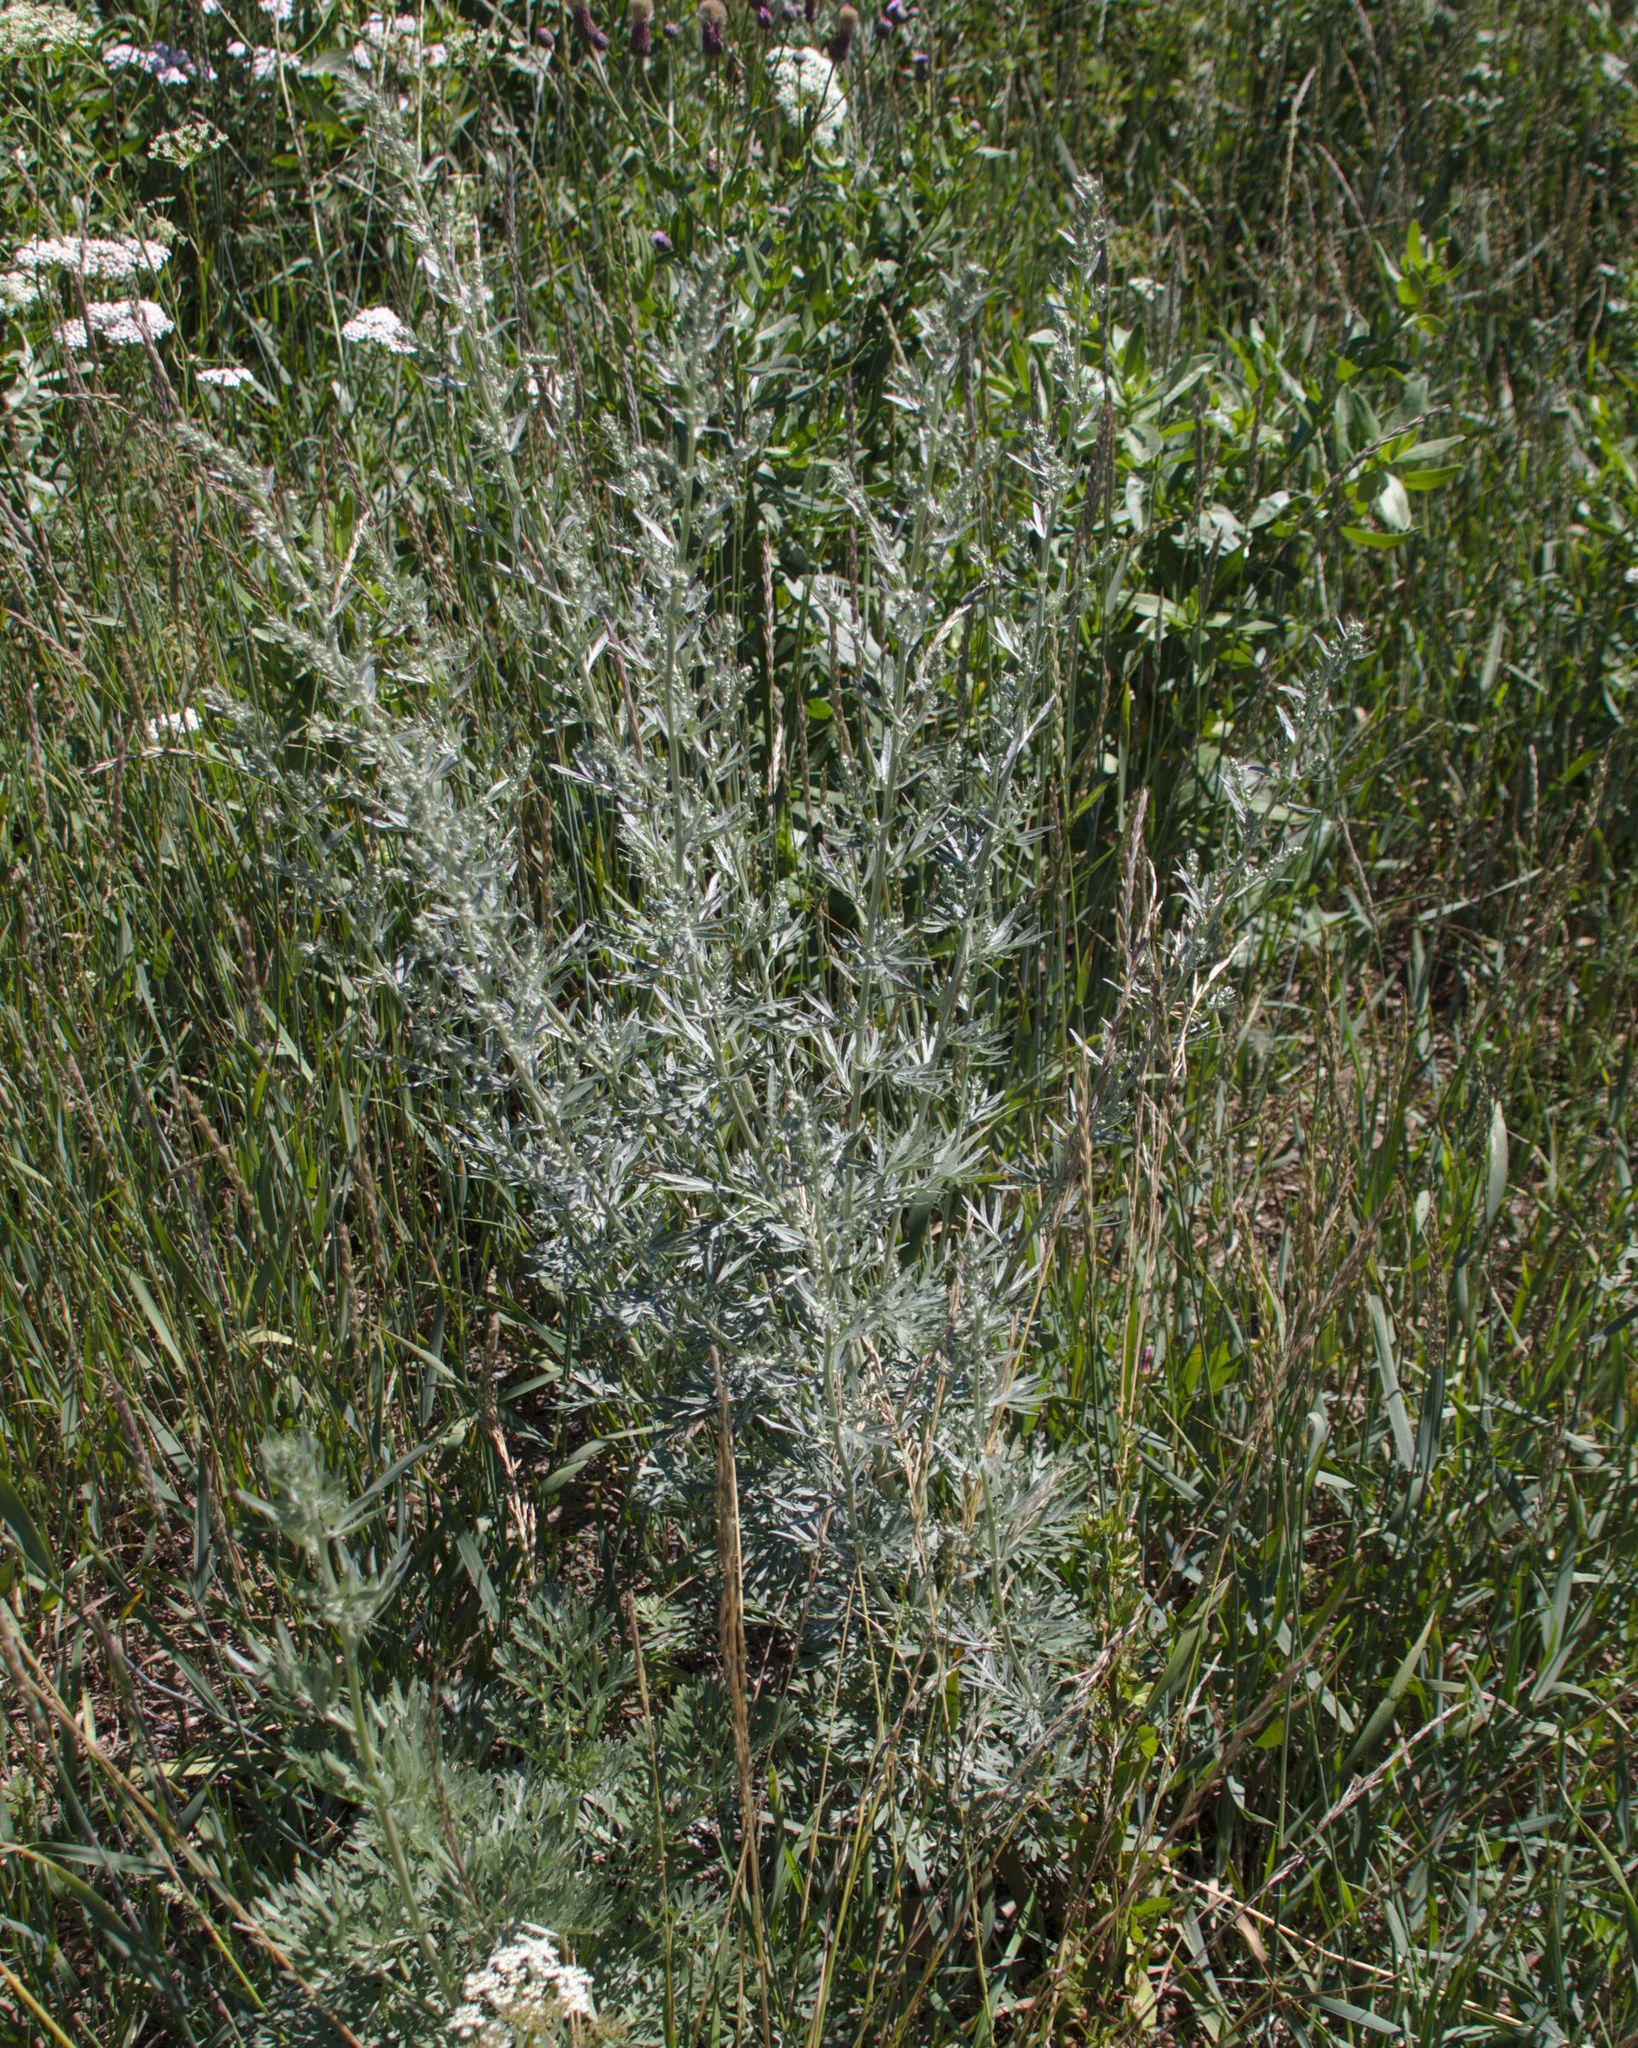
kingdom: Plantae
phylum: Tracheophyta
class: Magnoliopsida
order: Asterales
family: Asteraceae
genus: Artemisia
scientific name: Artemisia absinthium
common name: Wormwood
